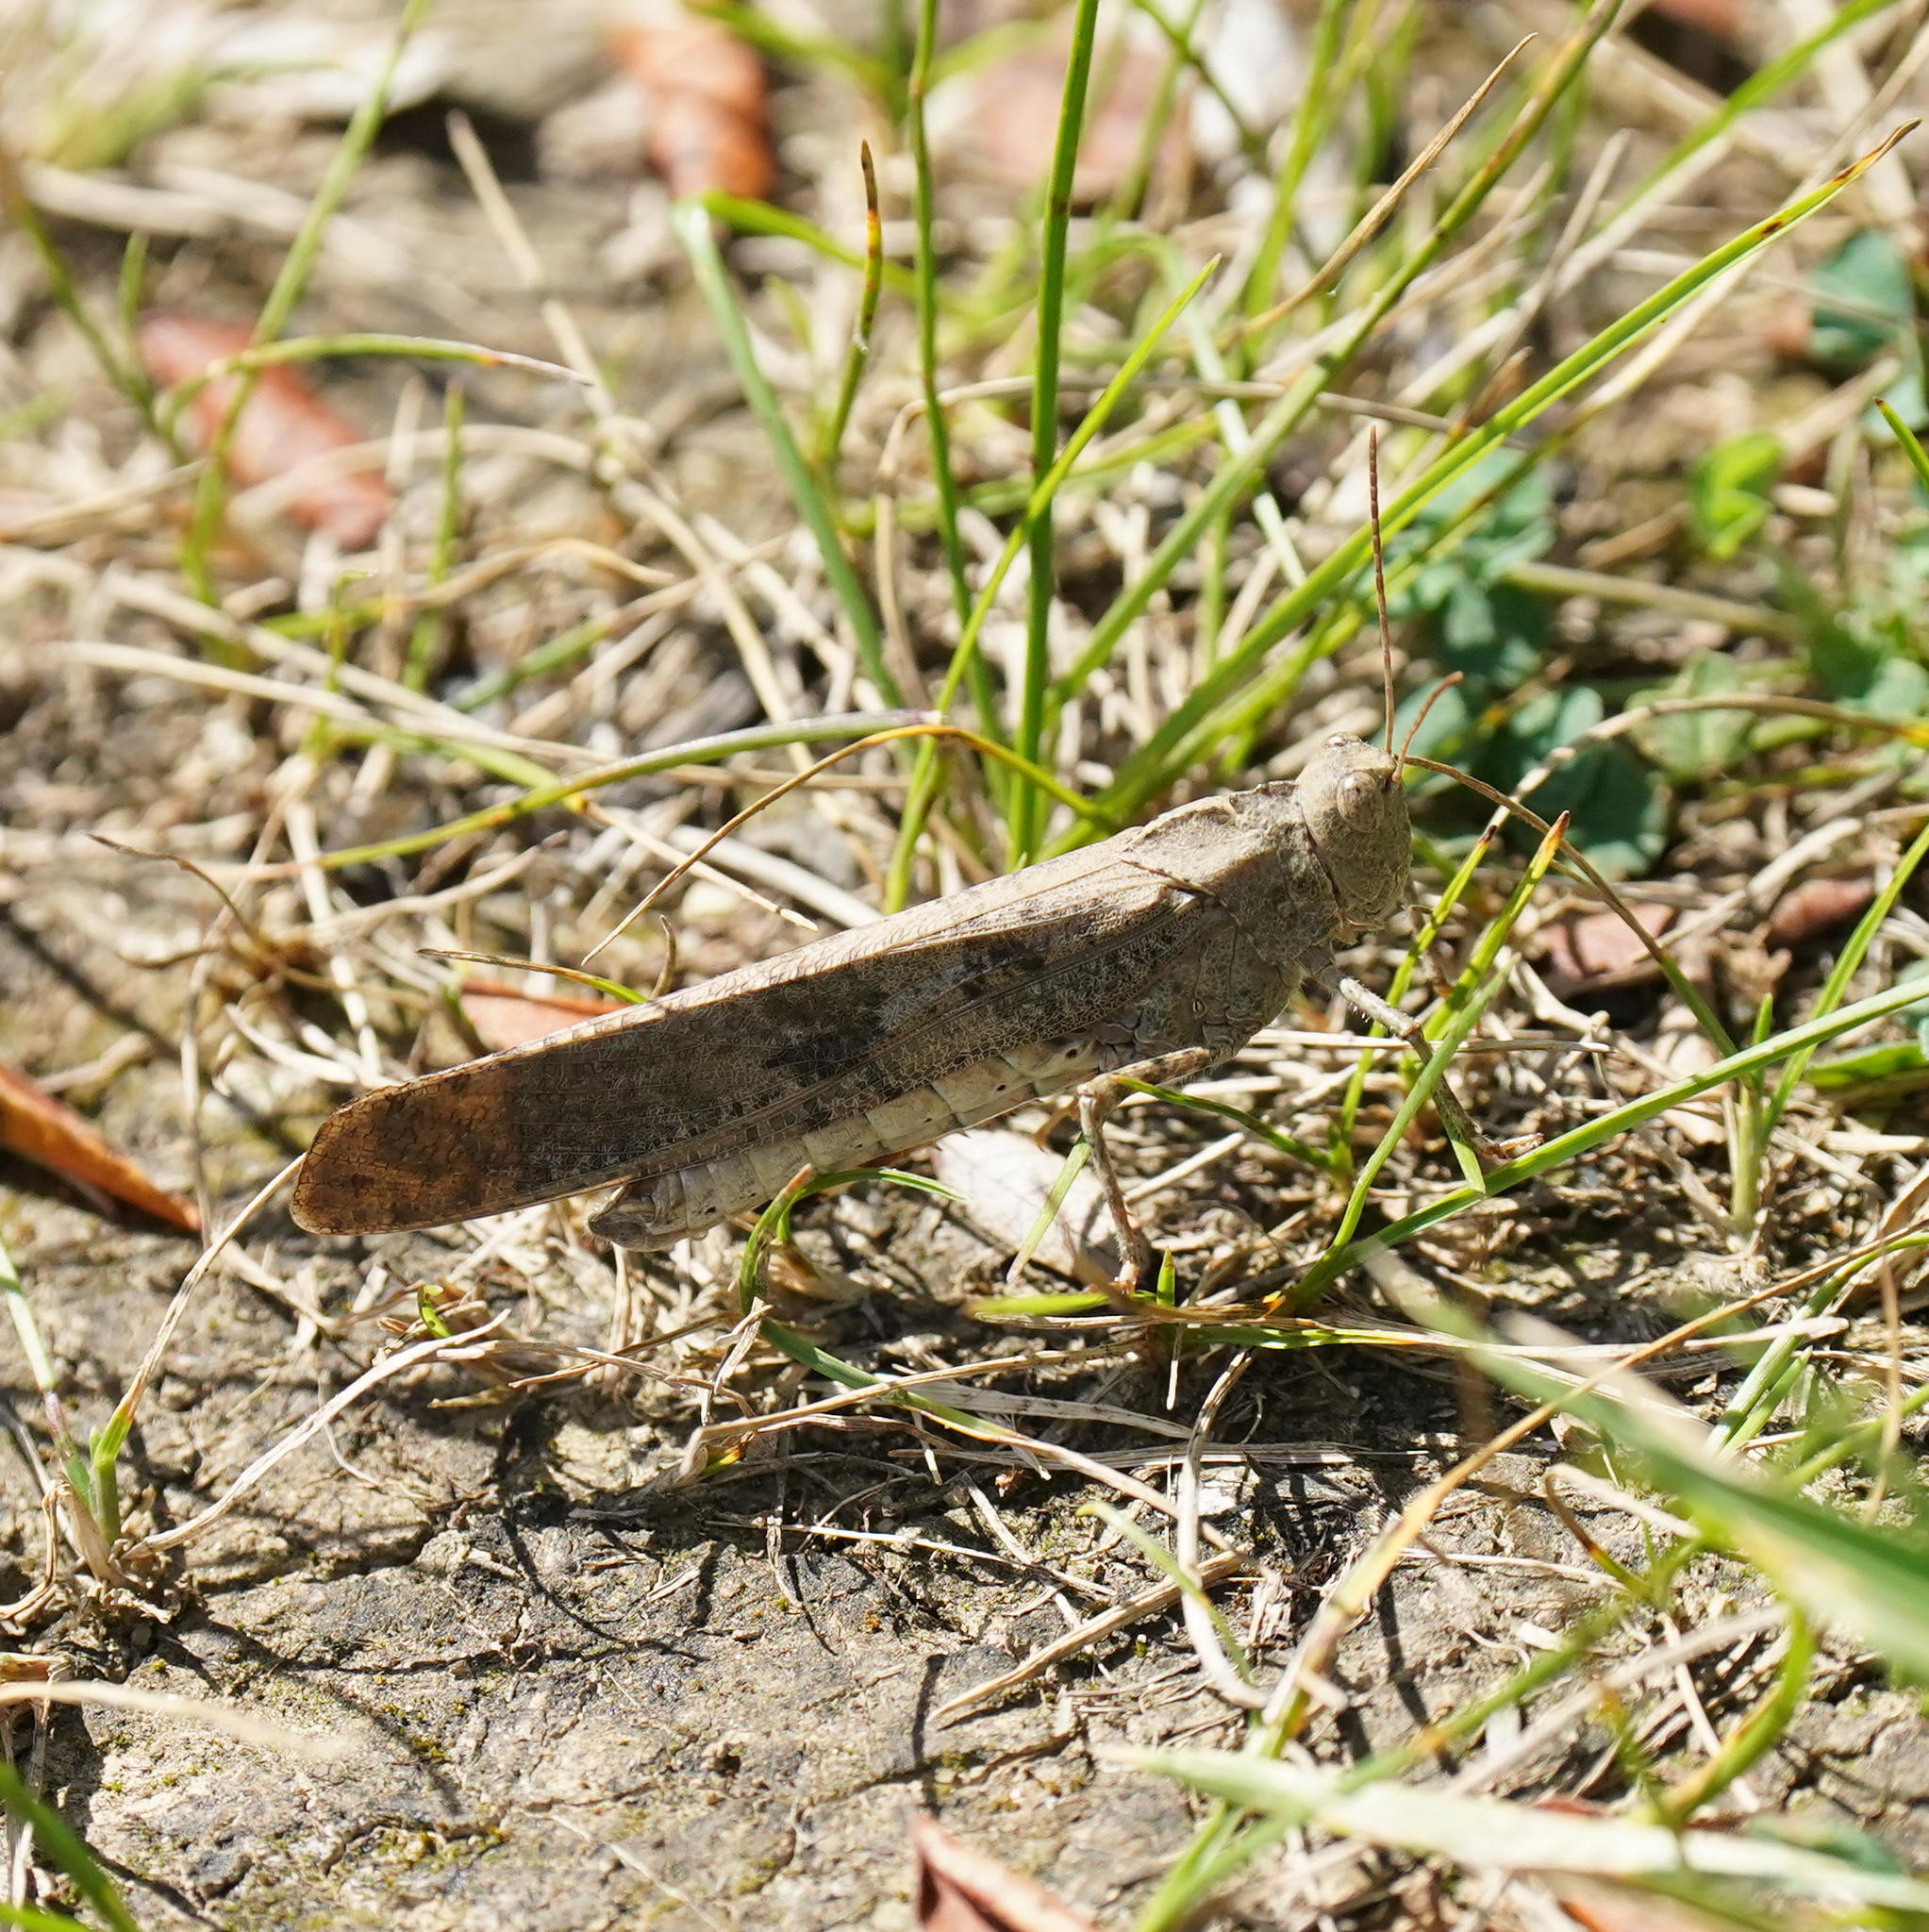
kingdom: Animalia
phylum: Arthropoda
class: Insecta
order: Orthoptera
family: Acrididae
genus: Dissosteira
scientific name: Dissosteira carolina
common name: Carolina grasshopper
